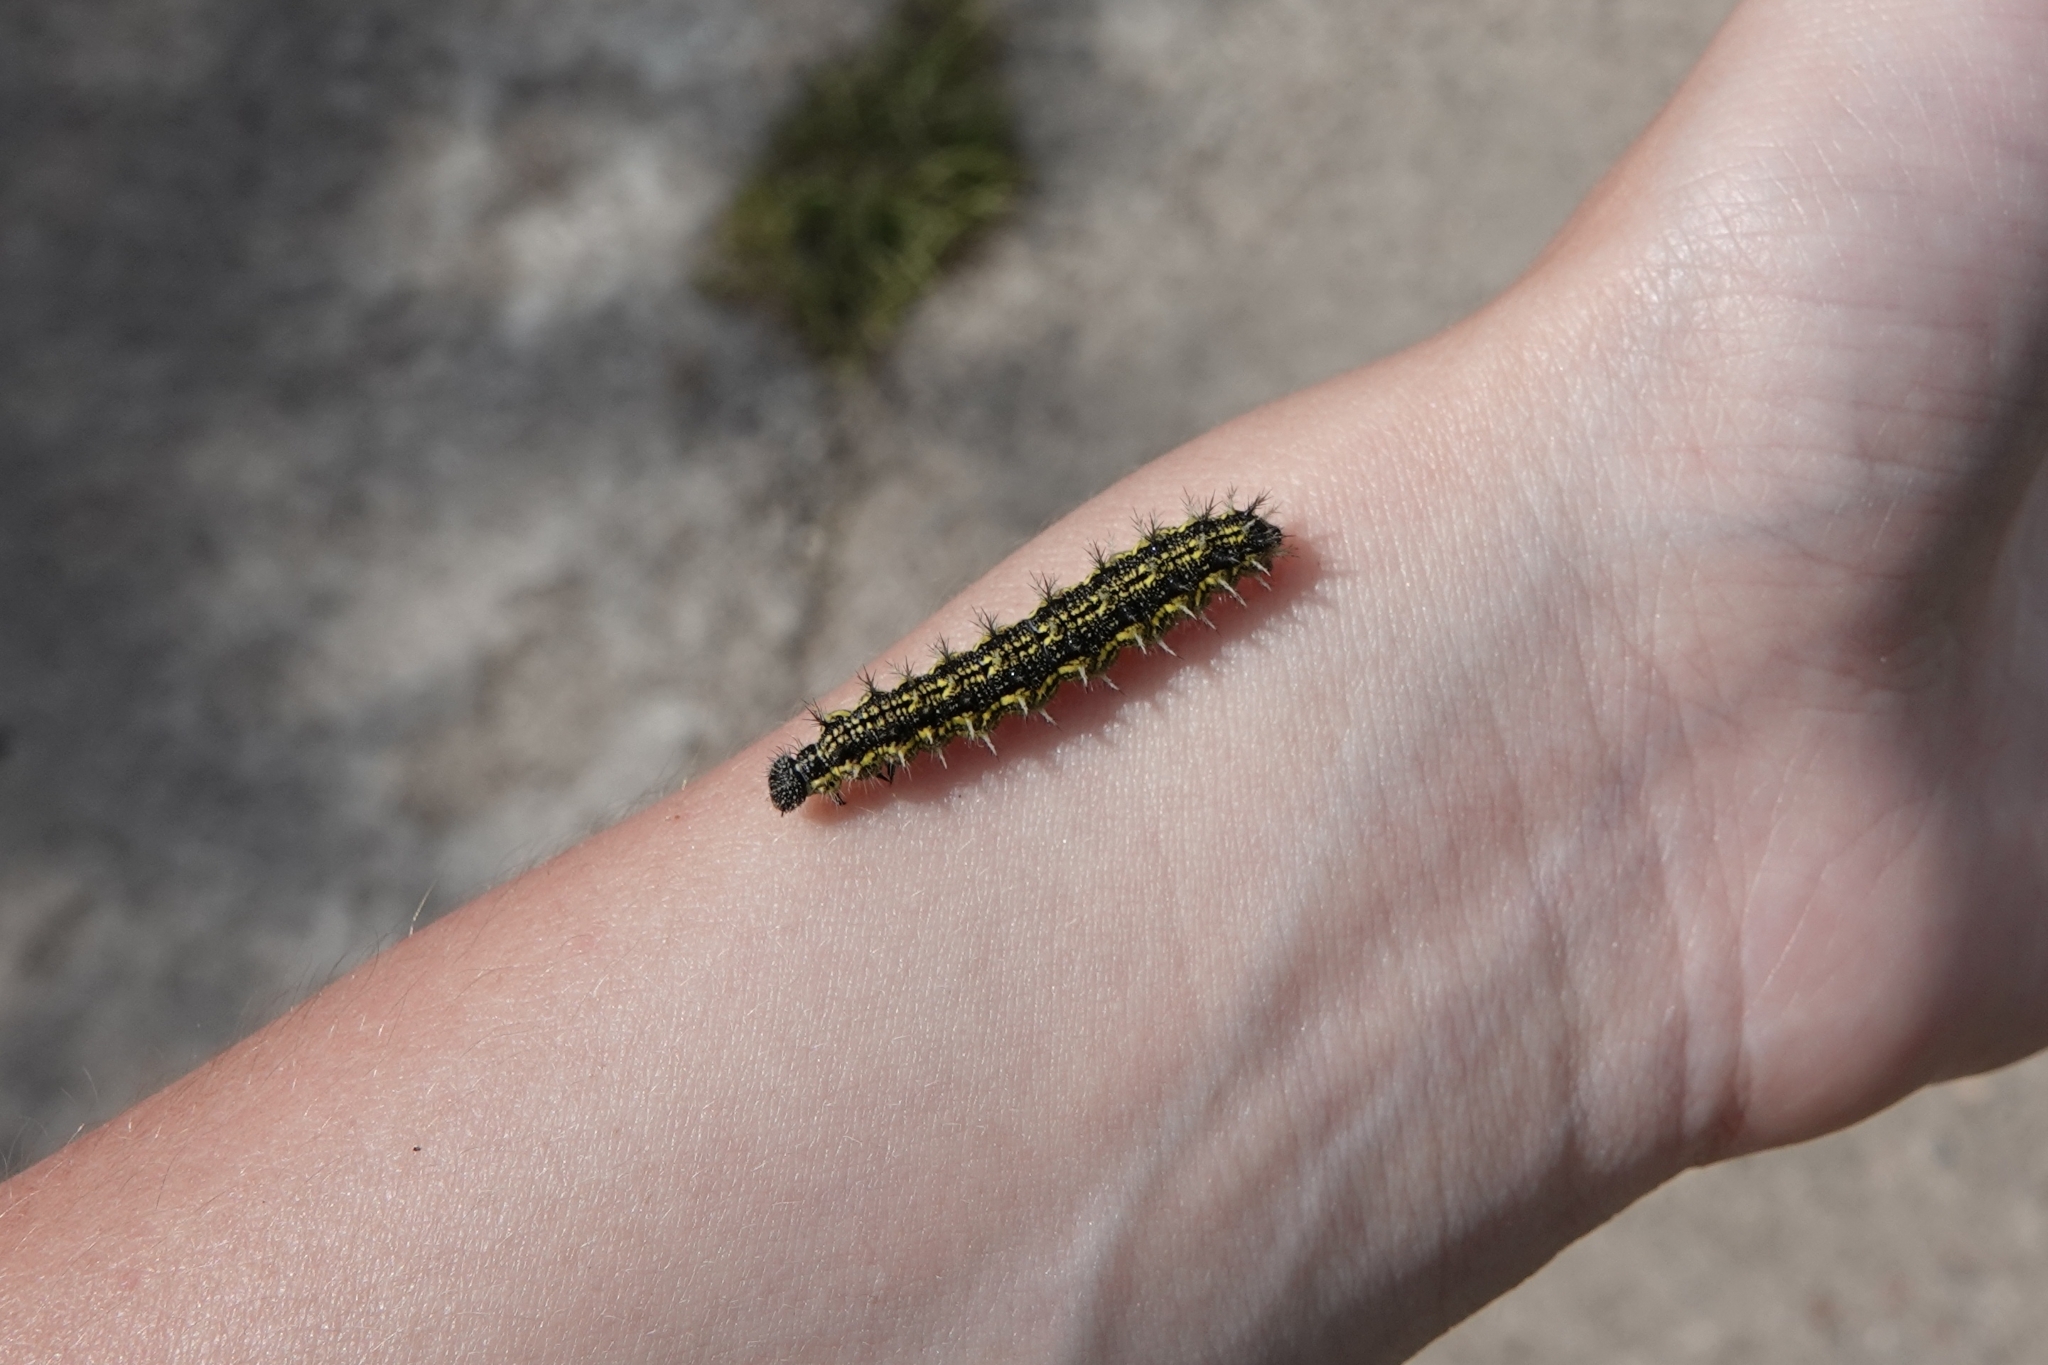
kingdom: Animalia
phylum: Arthropoda
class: Insecta
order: Lepidoptera
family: Nymphalidae
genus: Aglais
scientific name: Aglais urticae
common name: Small tortoiseshell
